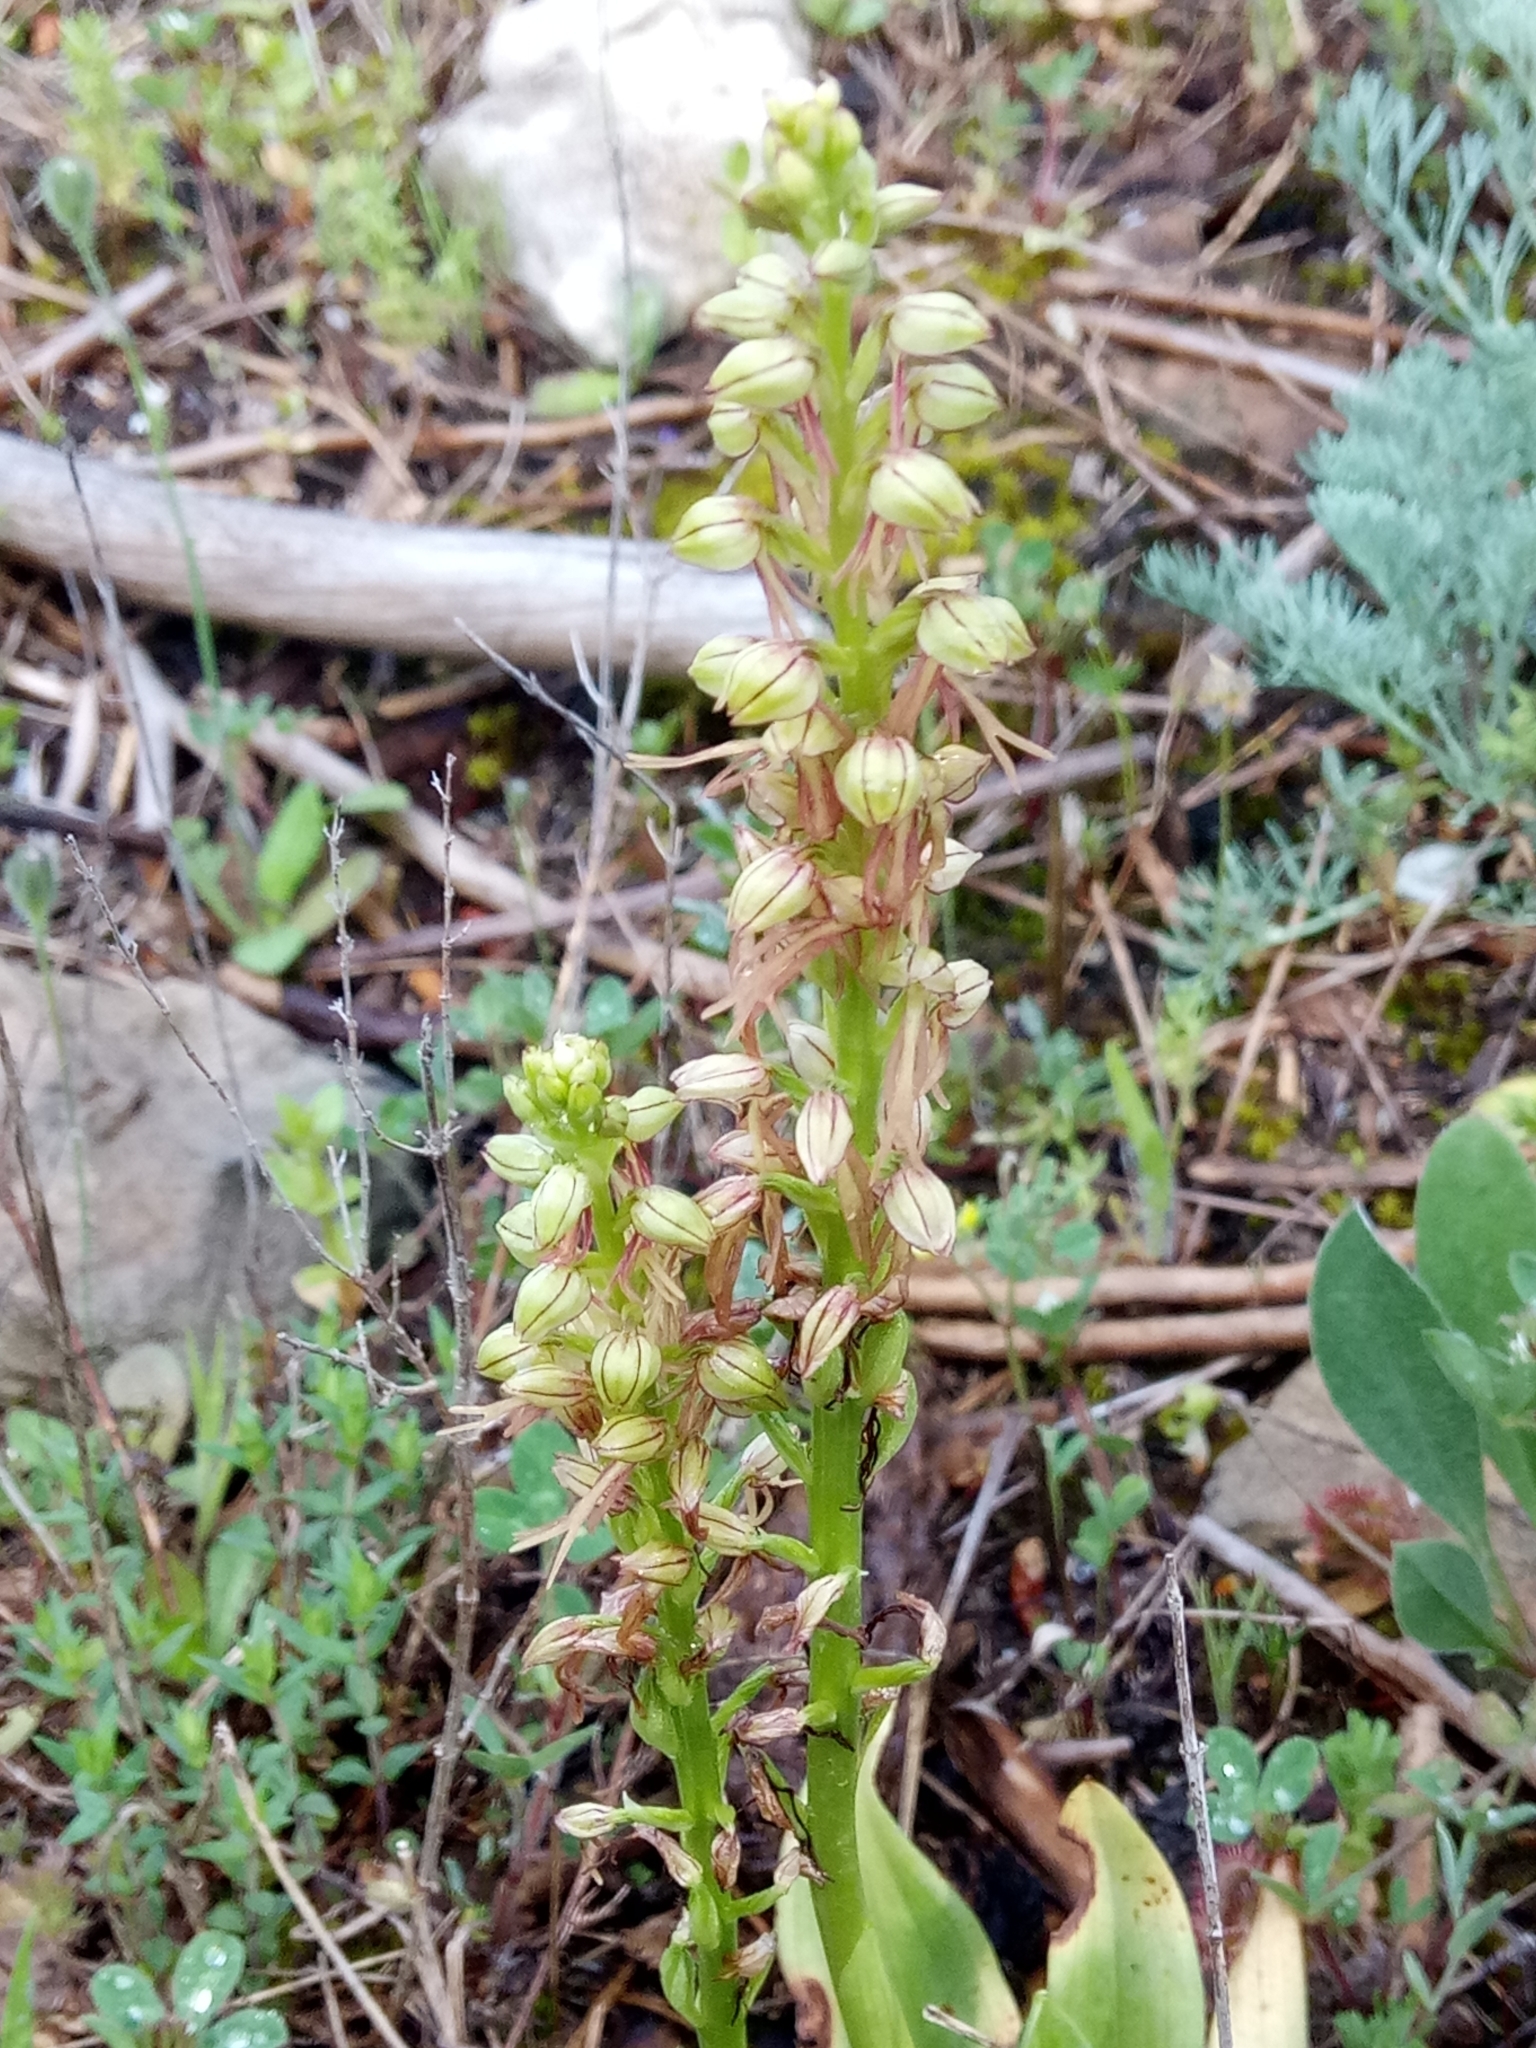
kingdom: Plantae
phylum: Tracheophyta
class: Liliopsida
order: Asparagales
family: Orchidaceae
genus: Orchis
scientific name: Orchis anthropophora
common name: Man orchid
